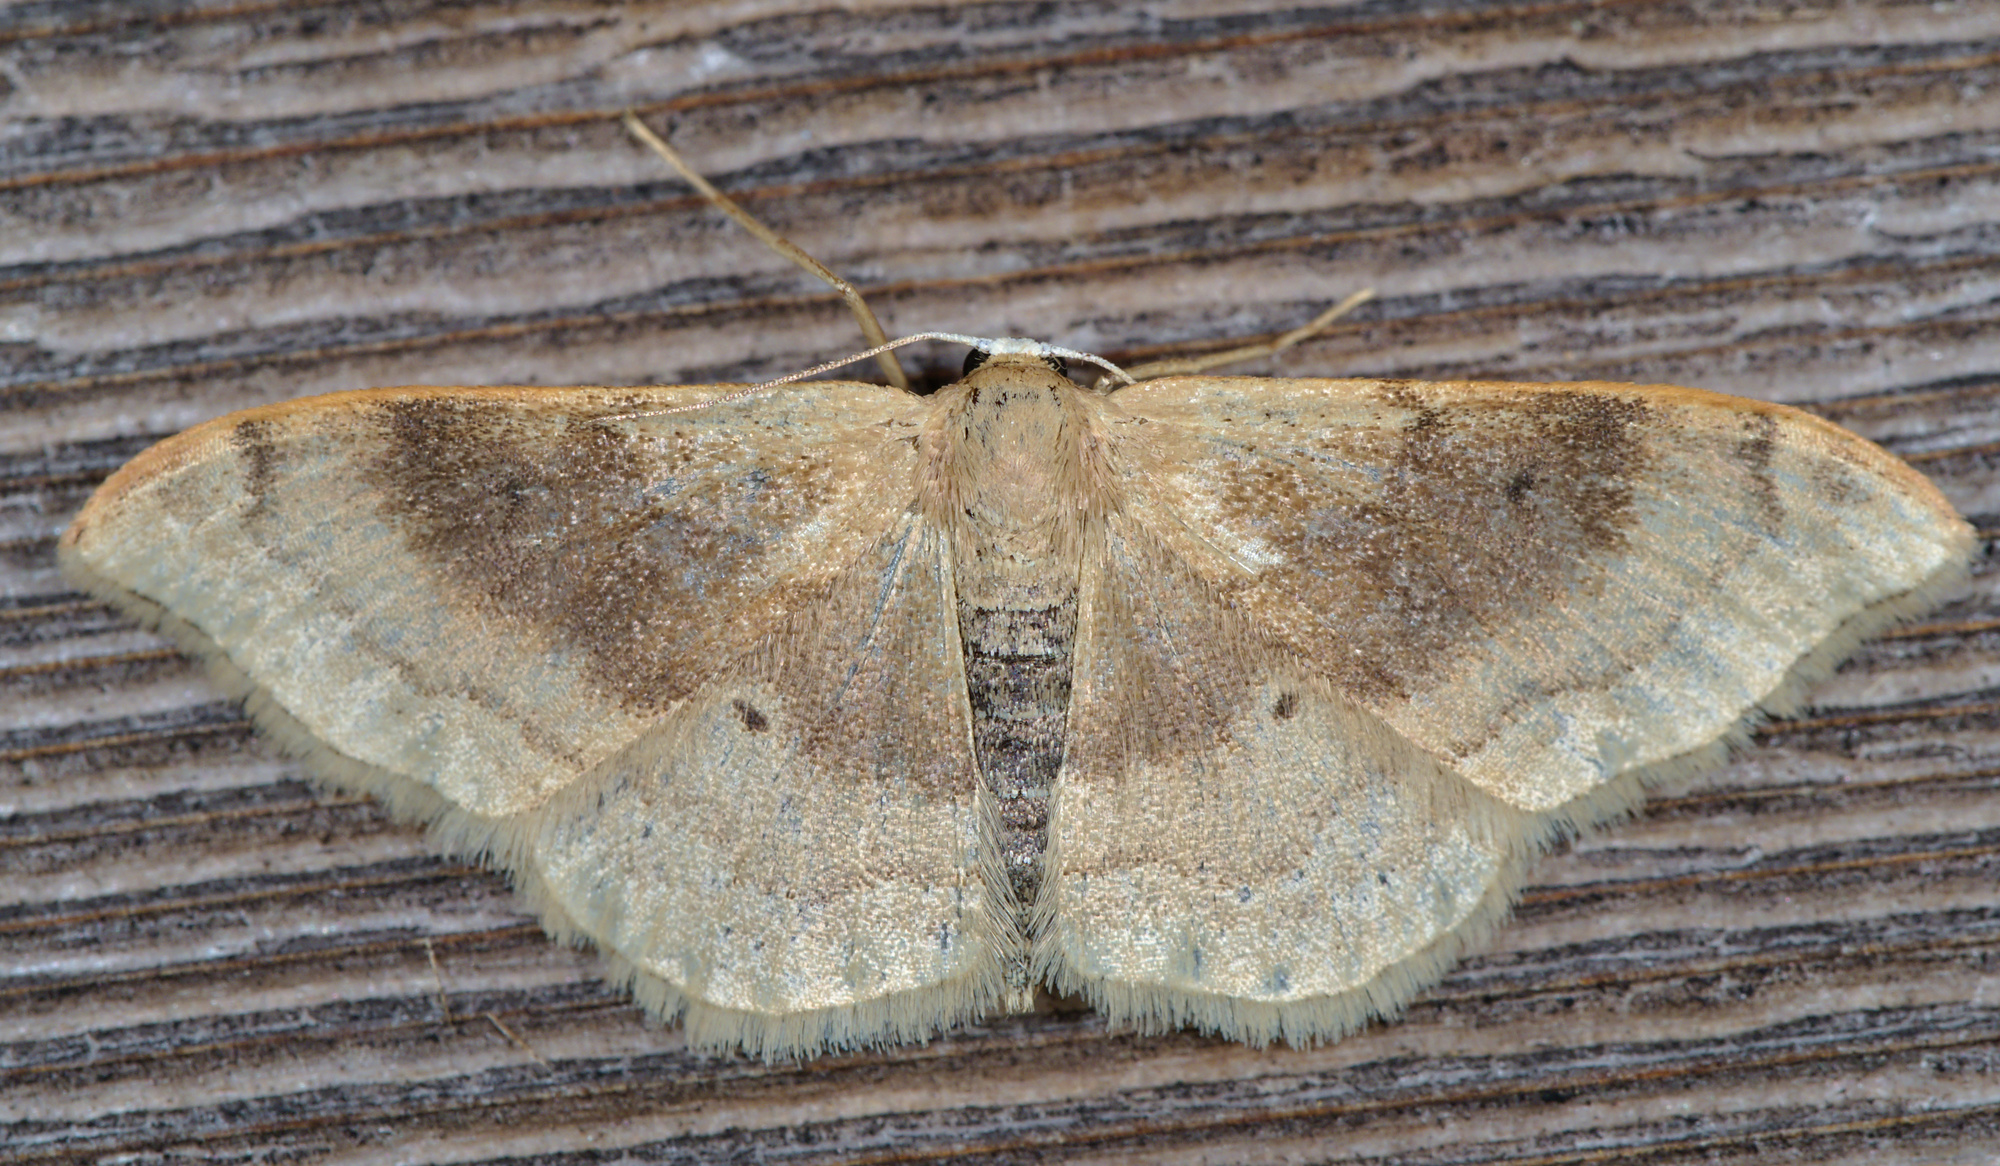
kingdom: Animalia
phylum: Arthropoda
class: Insecta
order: Lepidoptera
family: Geometridae
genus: Idaea
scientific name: Idaea degeneraria
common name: Portland ribbon wave
